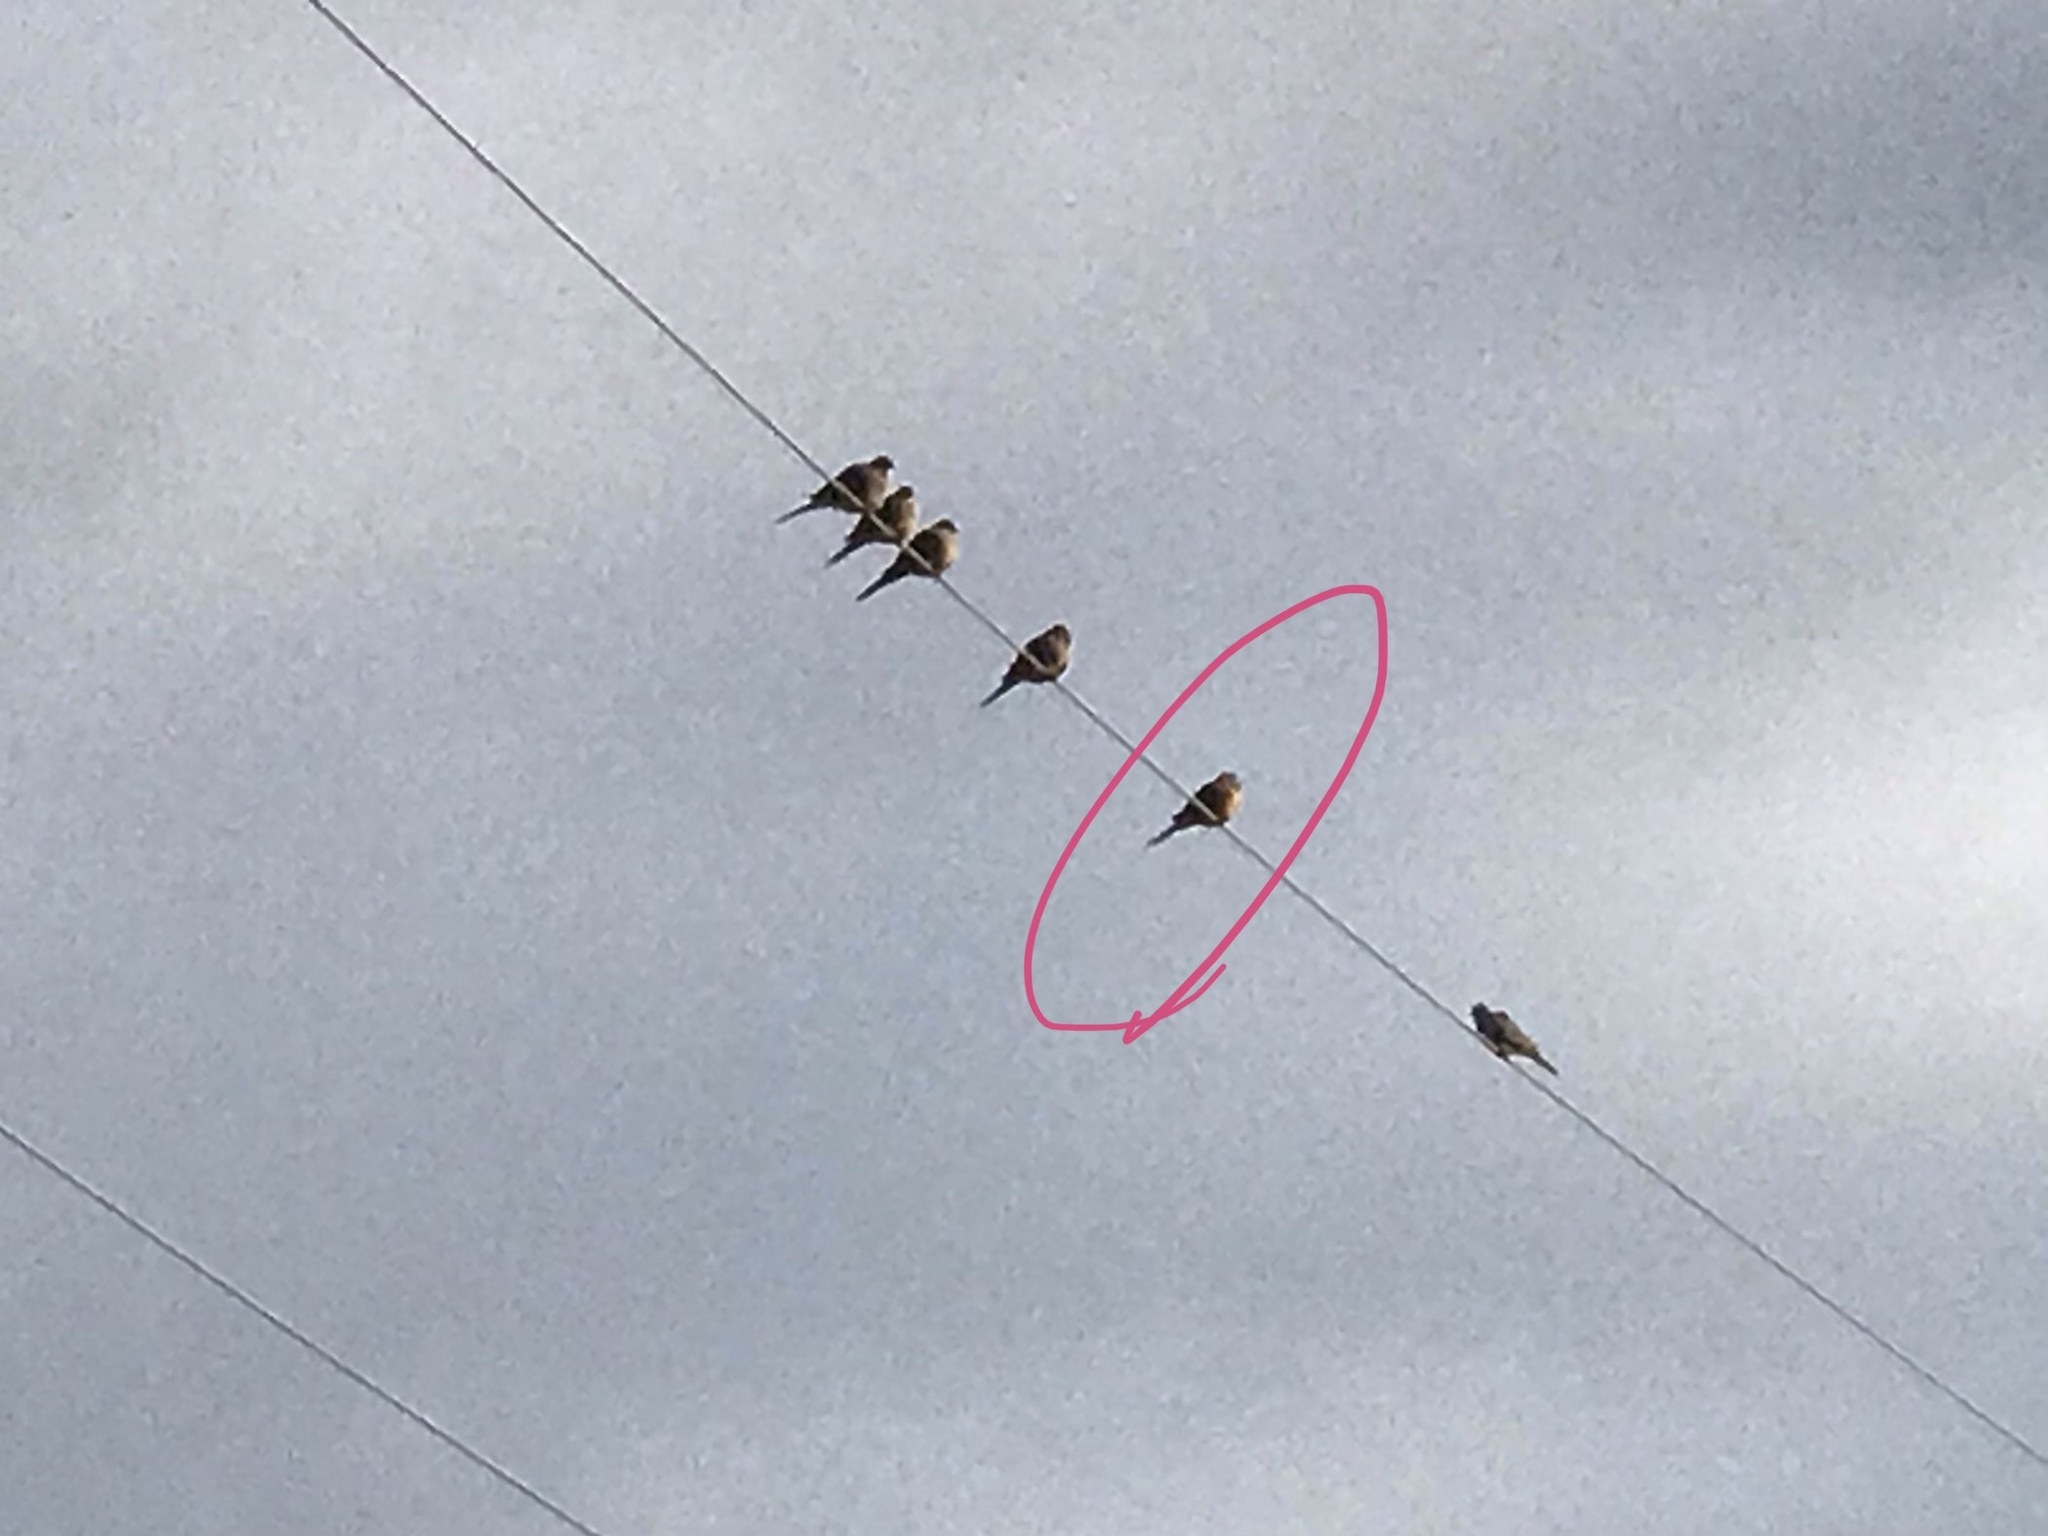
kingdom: Animalia
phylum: Chordata
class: Aves
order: Columbiformes
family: Columbidae
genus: Zenaida
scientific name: Zenaida macroura
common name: Mourning dove
